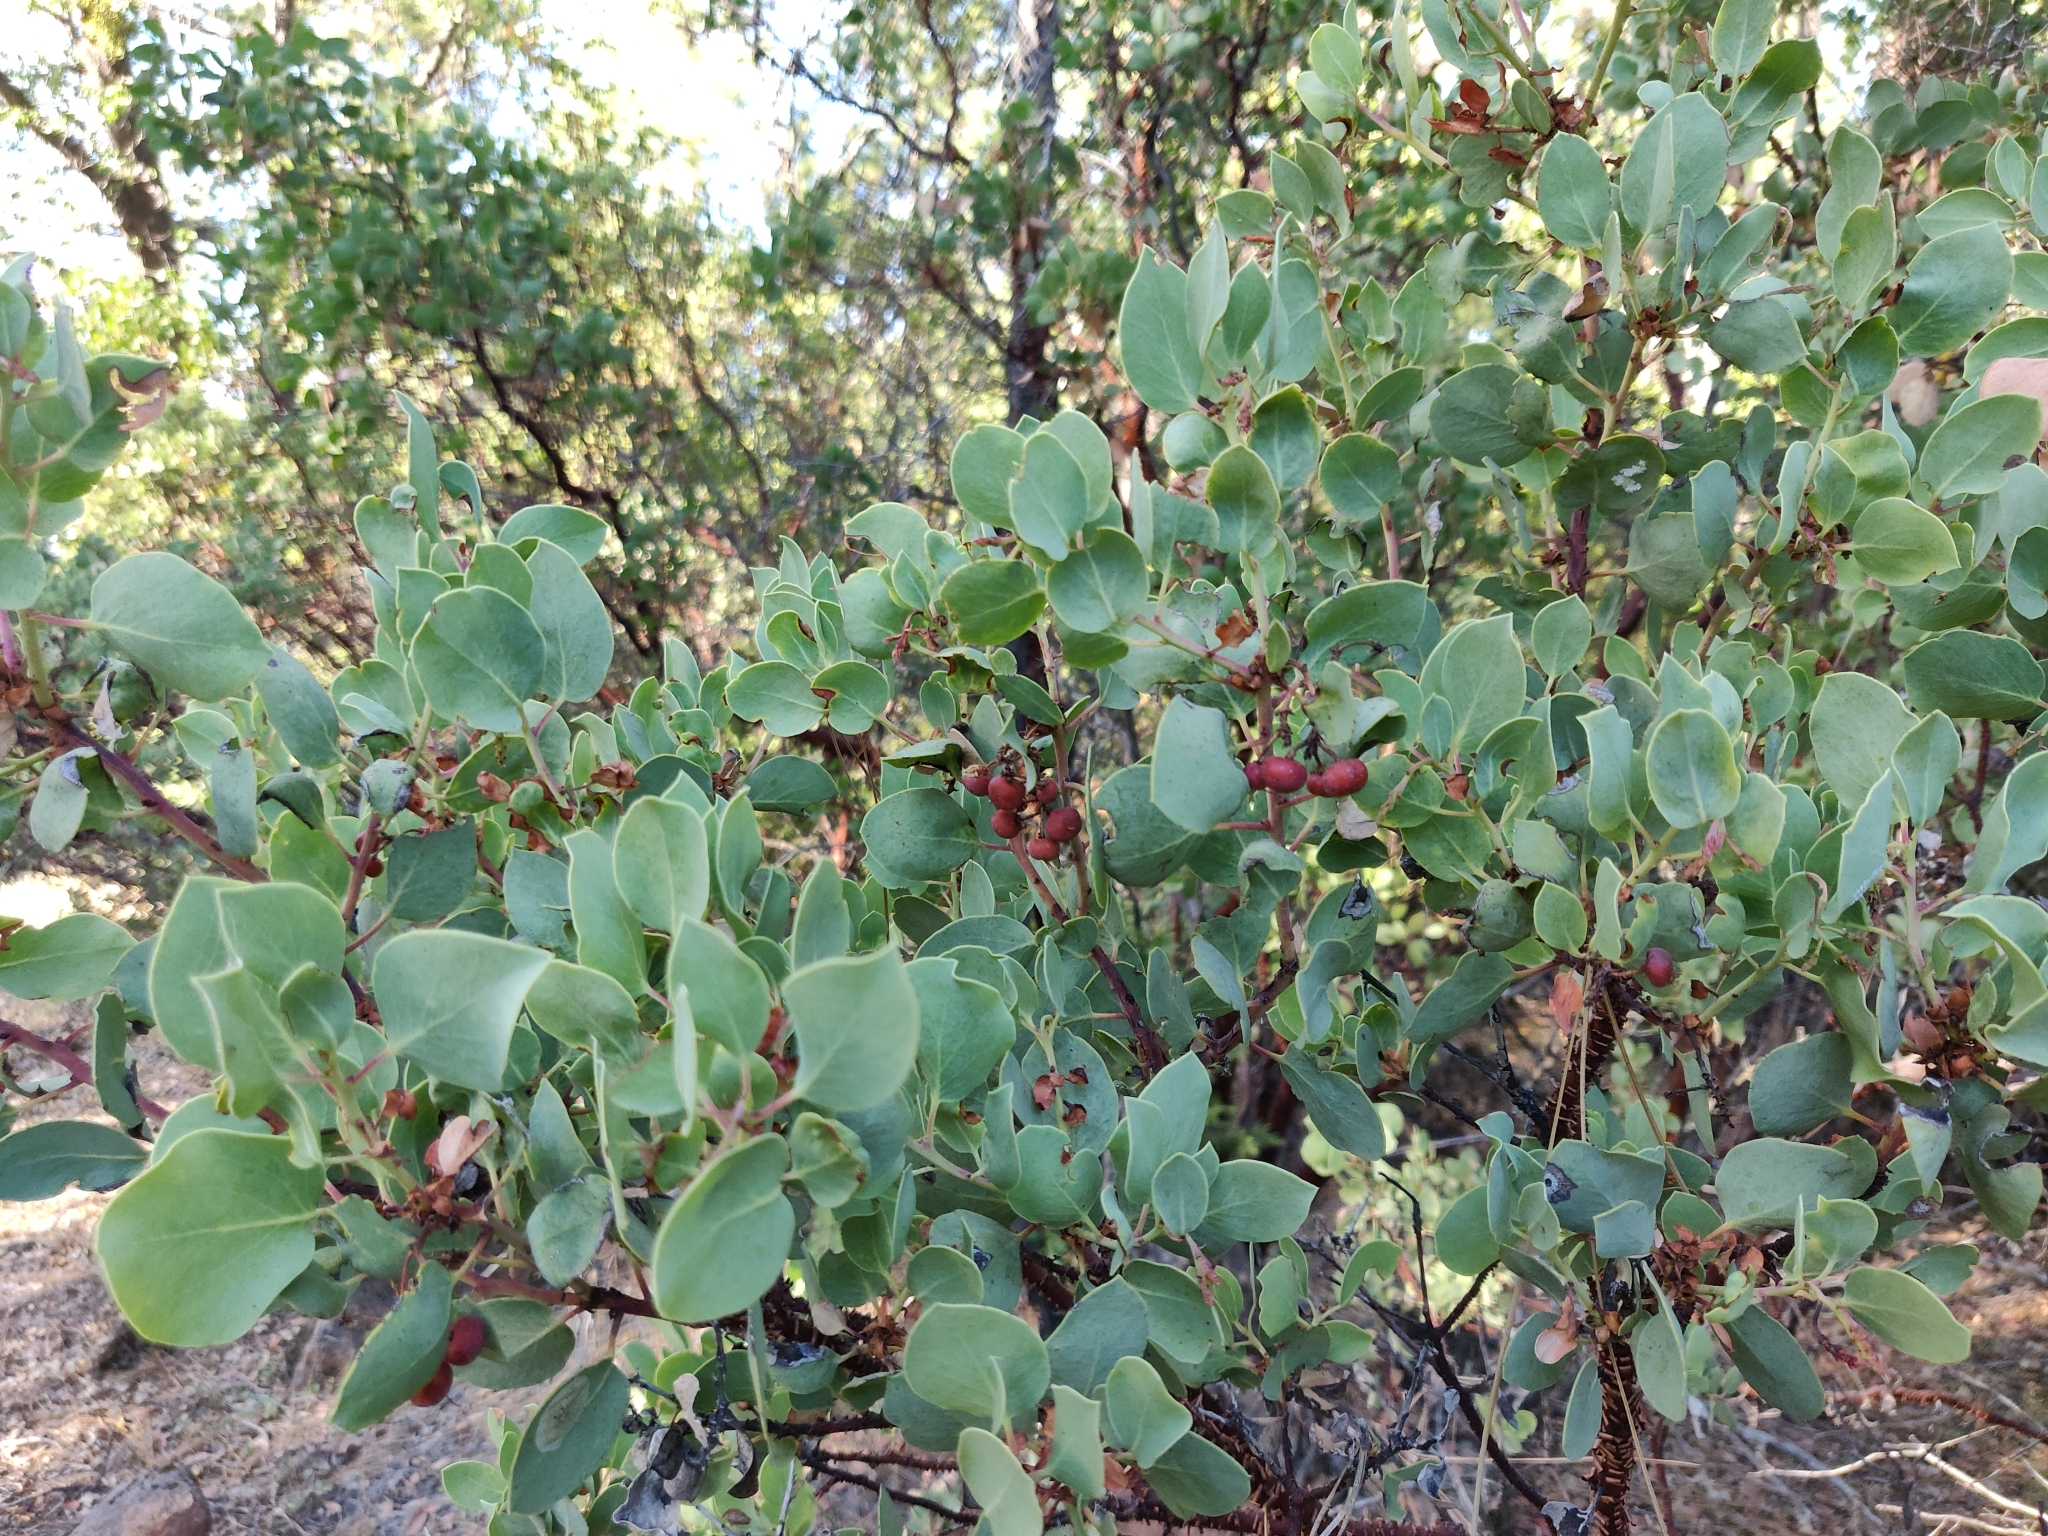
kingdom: Plantae
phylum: Tracheophyta
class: Magnoliopsida
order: Ericales
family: Ericaceae
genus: Arctostaphylos
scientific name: Arctostaphylos viscida
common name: White-leaf manzanita
